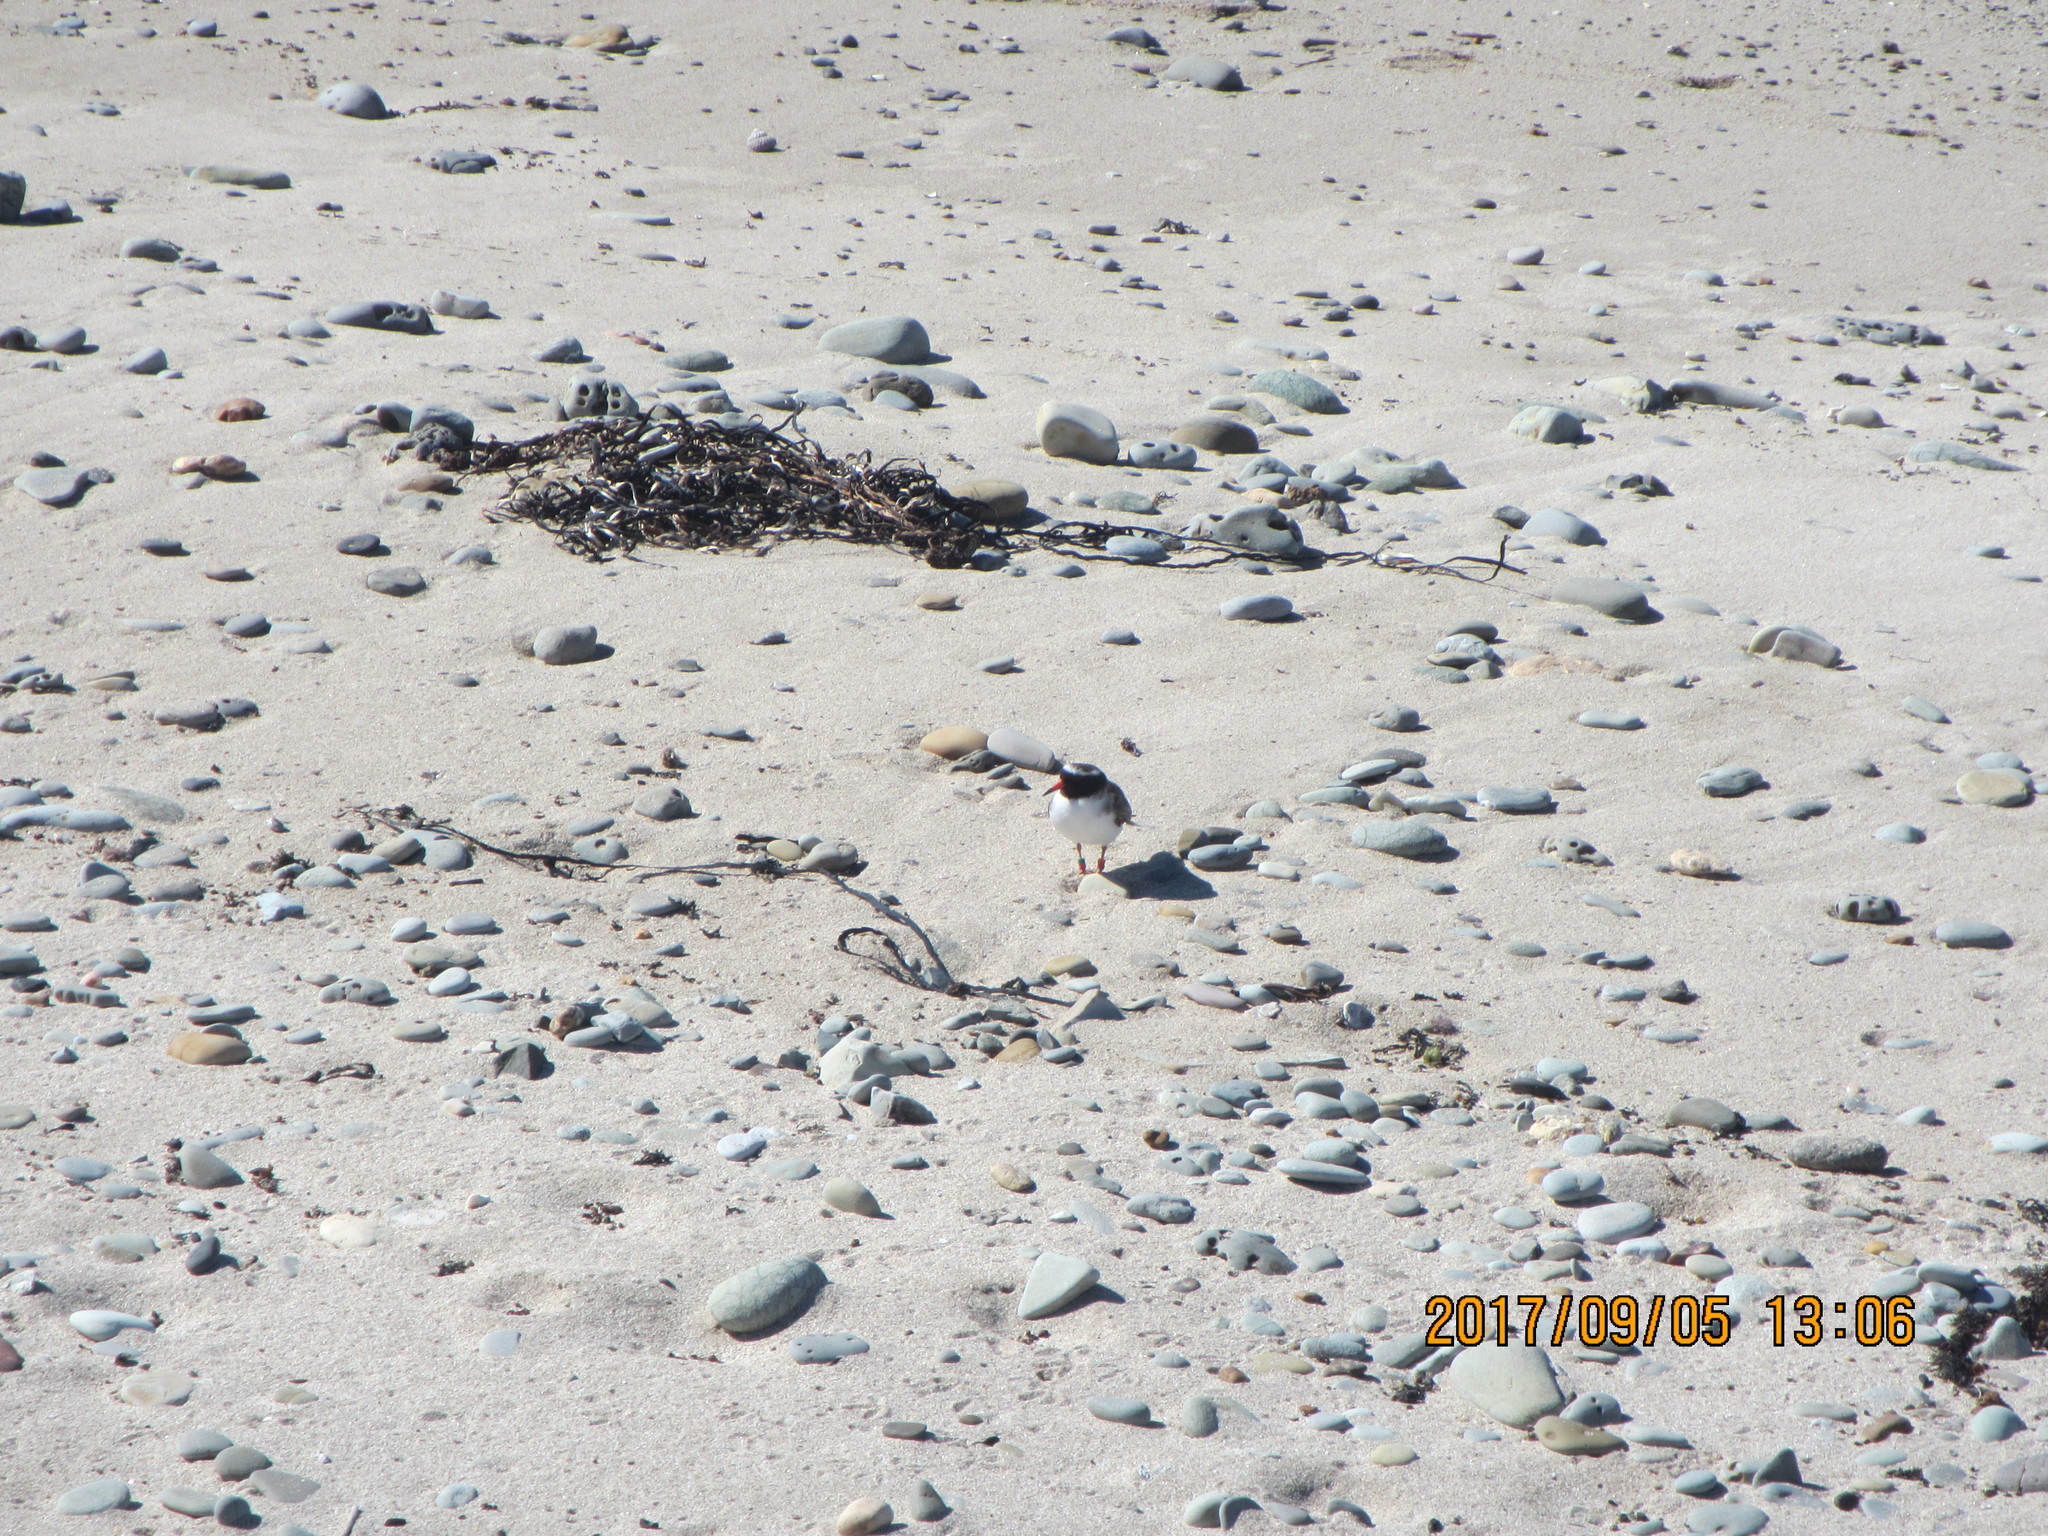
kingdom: Animalia
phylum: Chordata
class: Aves
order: Charadriiformes
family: Charadriidae
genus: Thinornis
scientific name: Thinornis novaeseelandiae
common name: Shore dotterel
